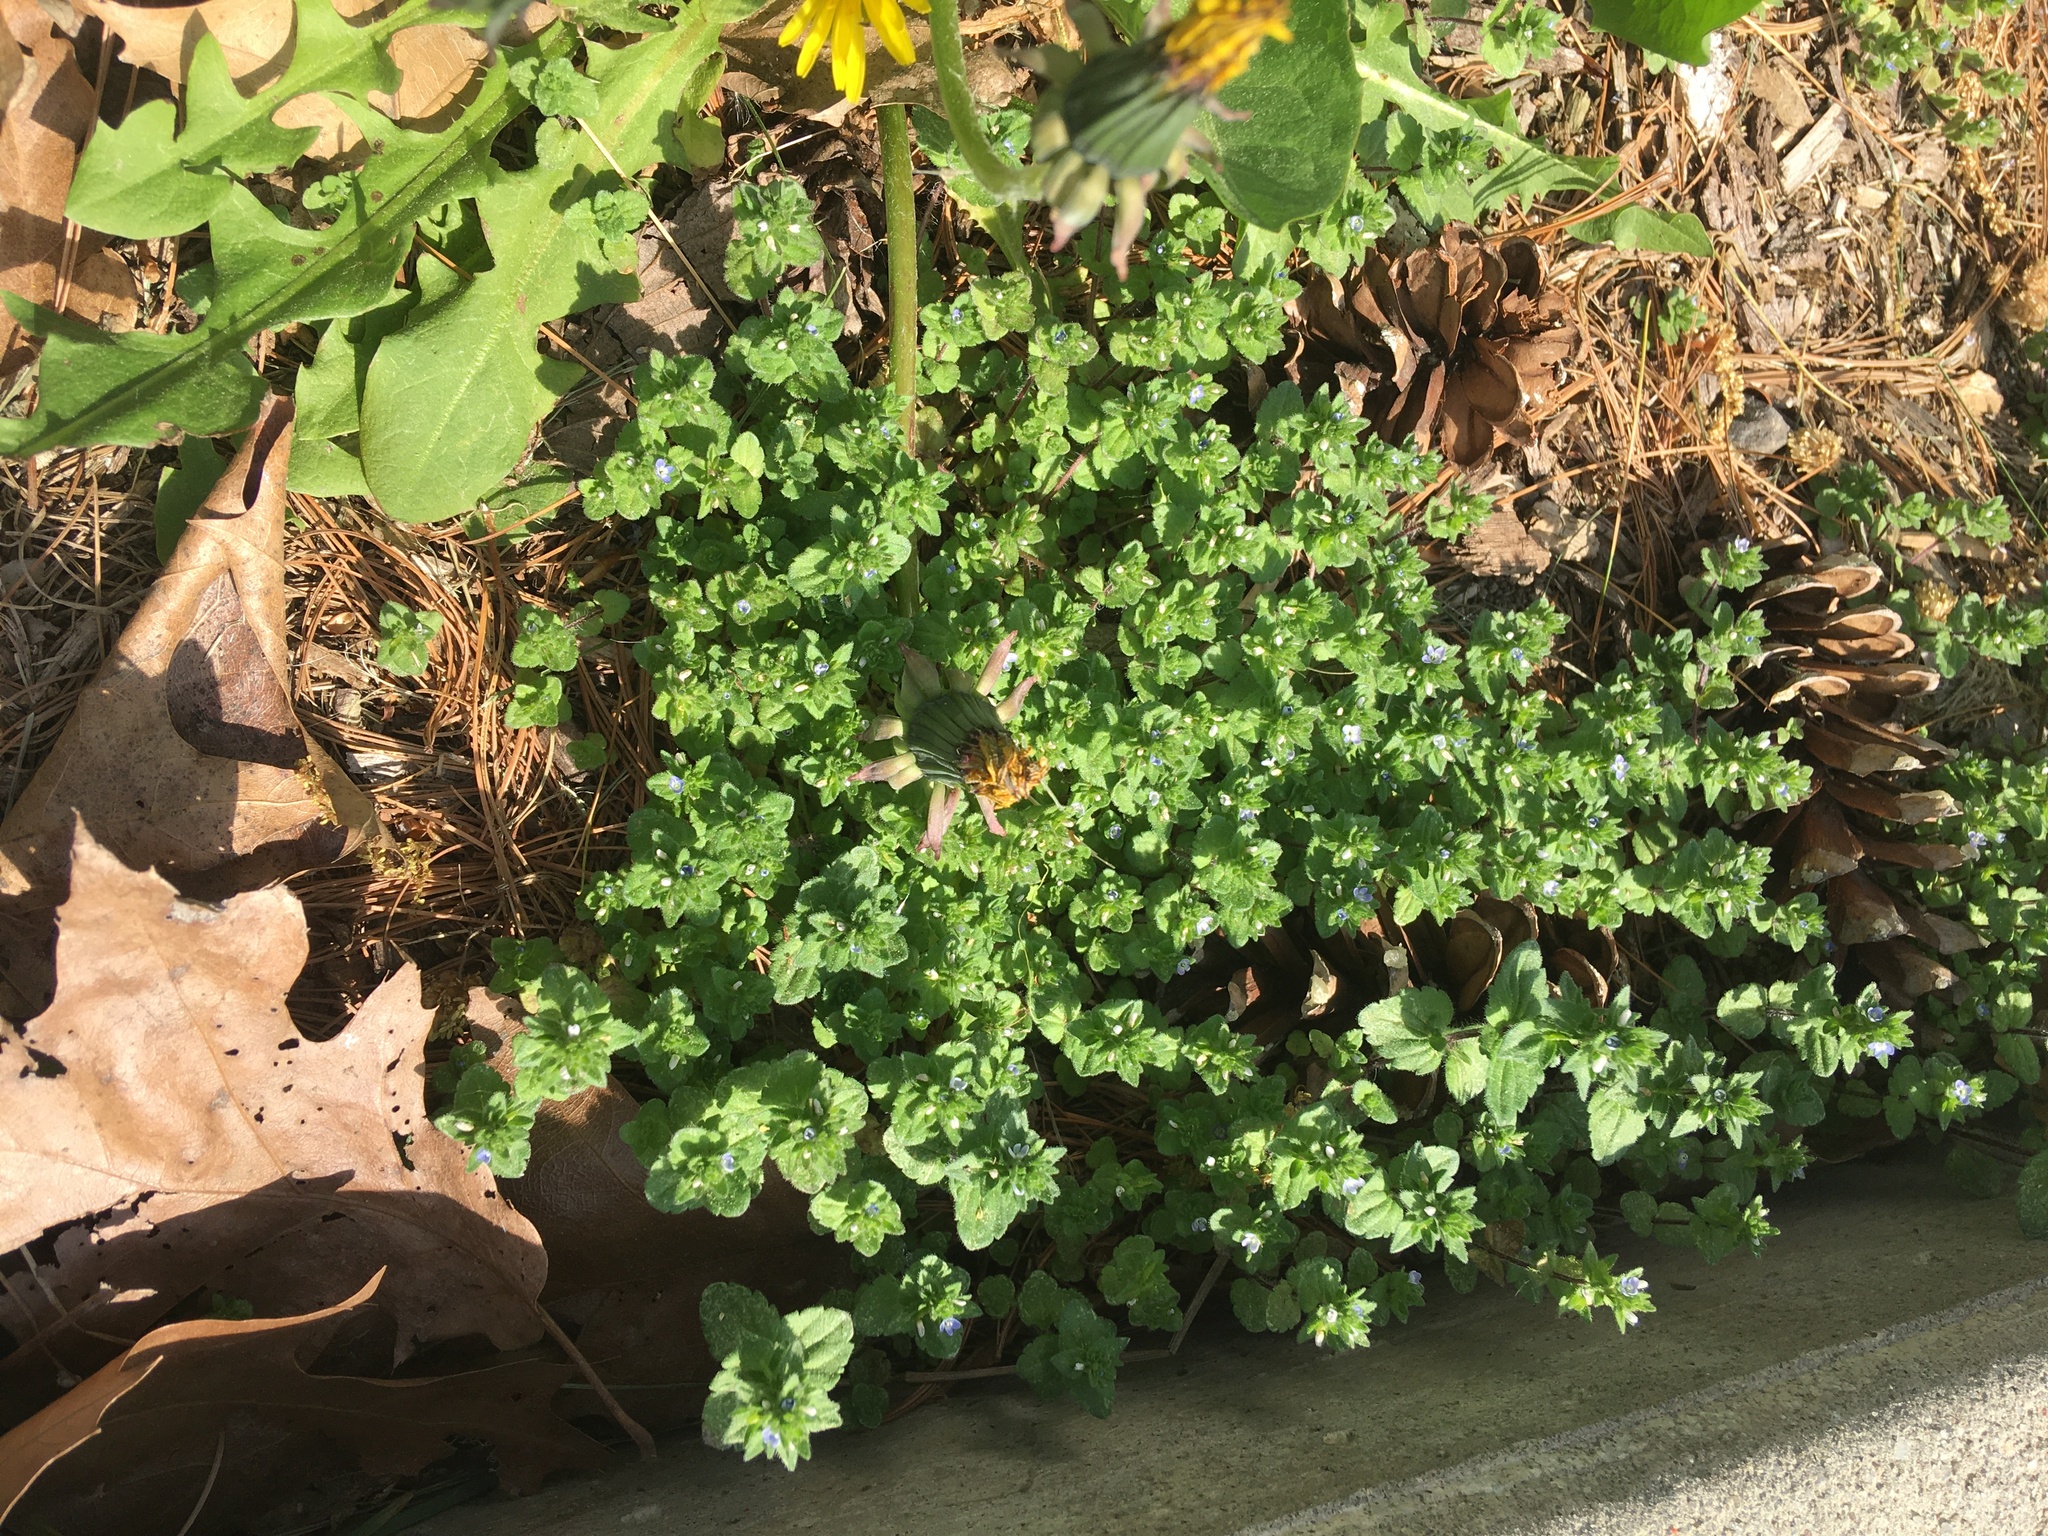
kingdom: Plantae
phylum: Tracheophyta
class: Magnoliopsida
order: Lamiales
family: Plantaginaceae
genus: Veronica
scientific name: Veronica arvensis
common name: Corn speedwell
